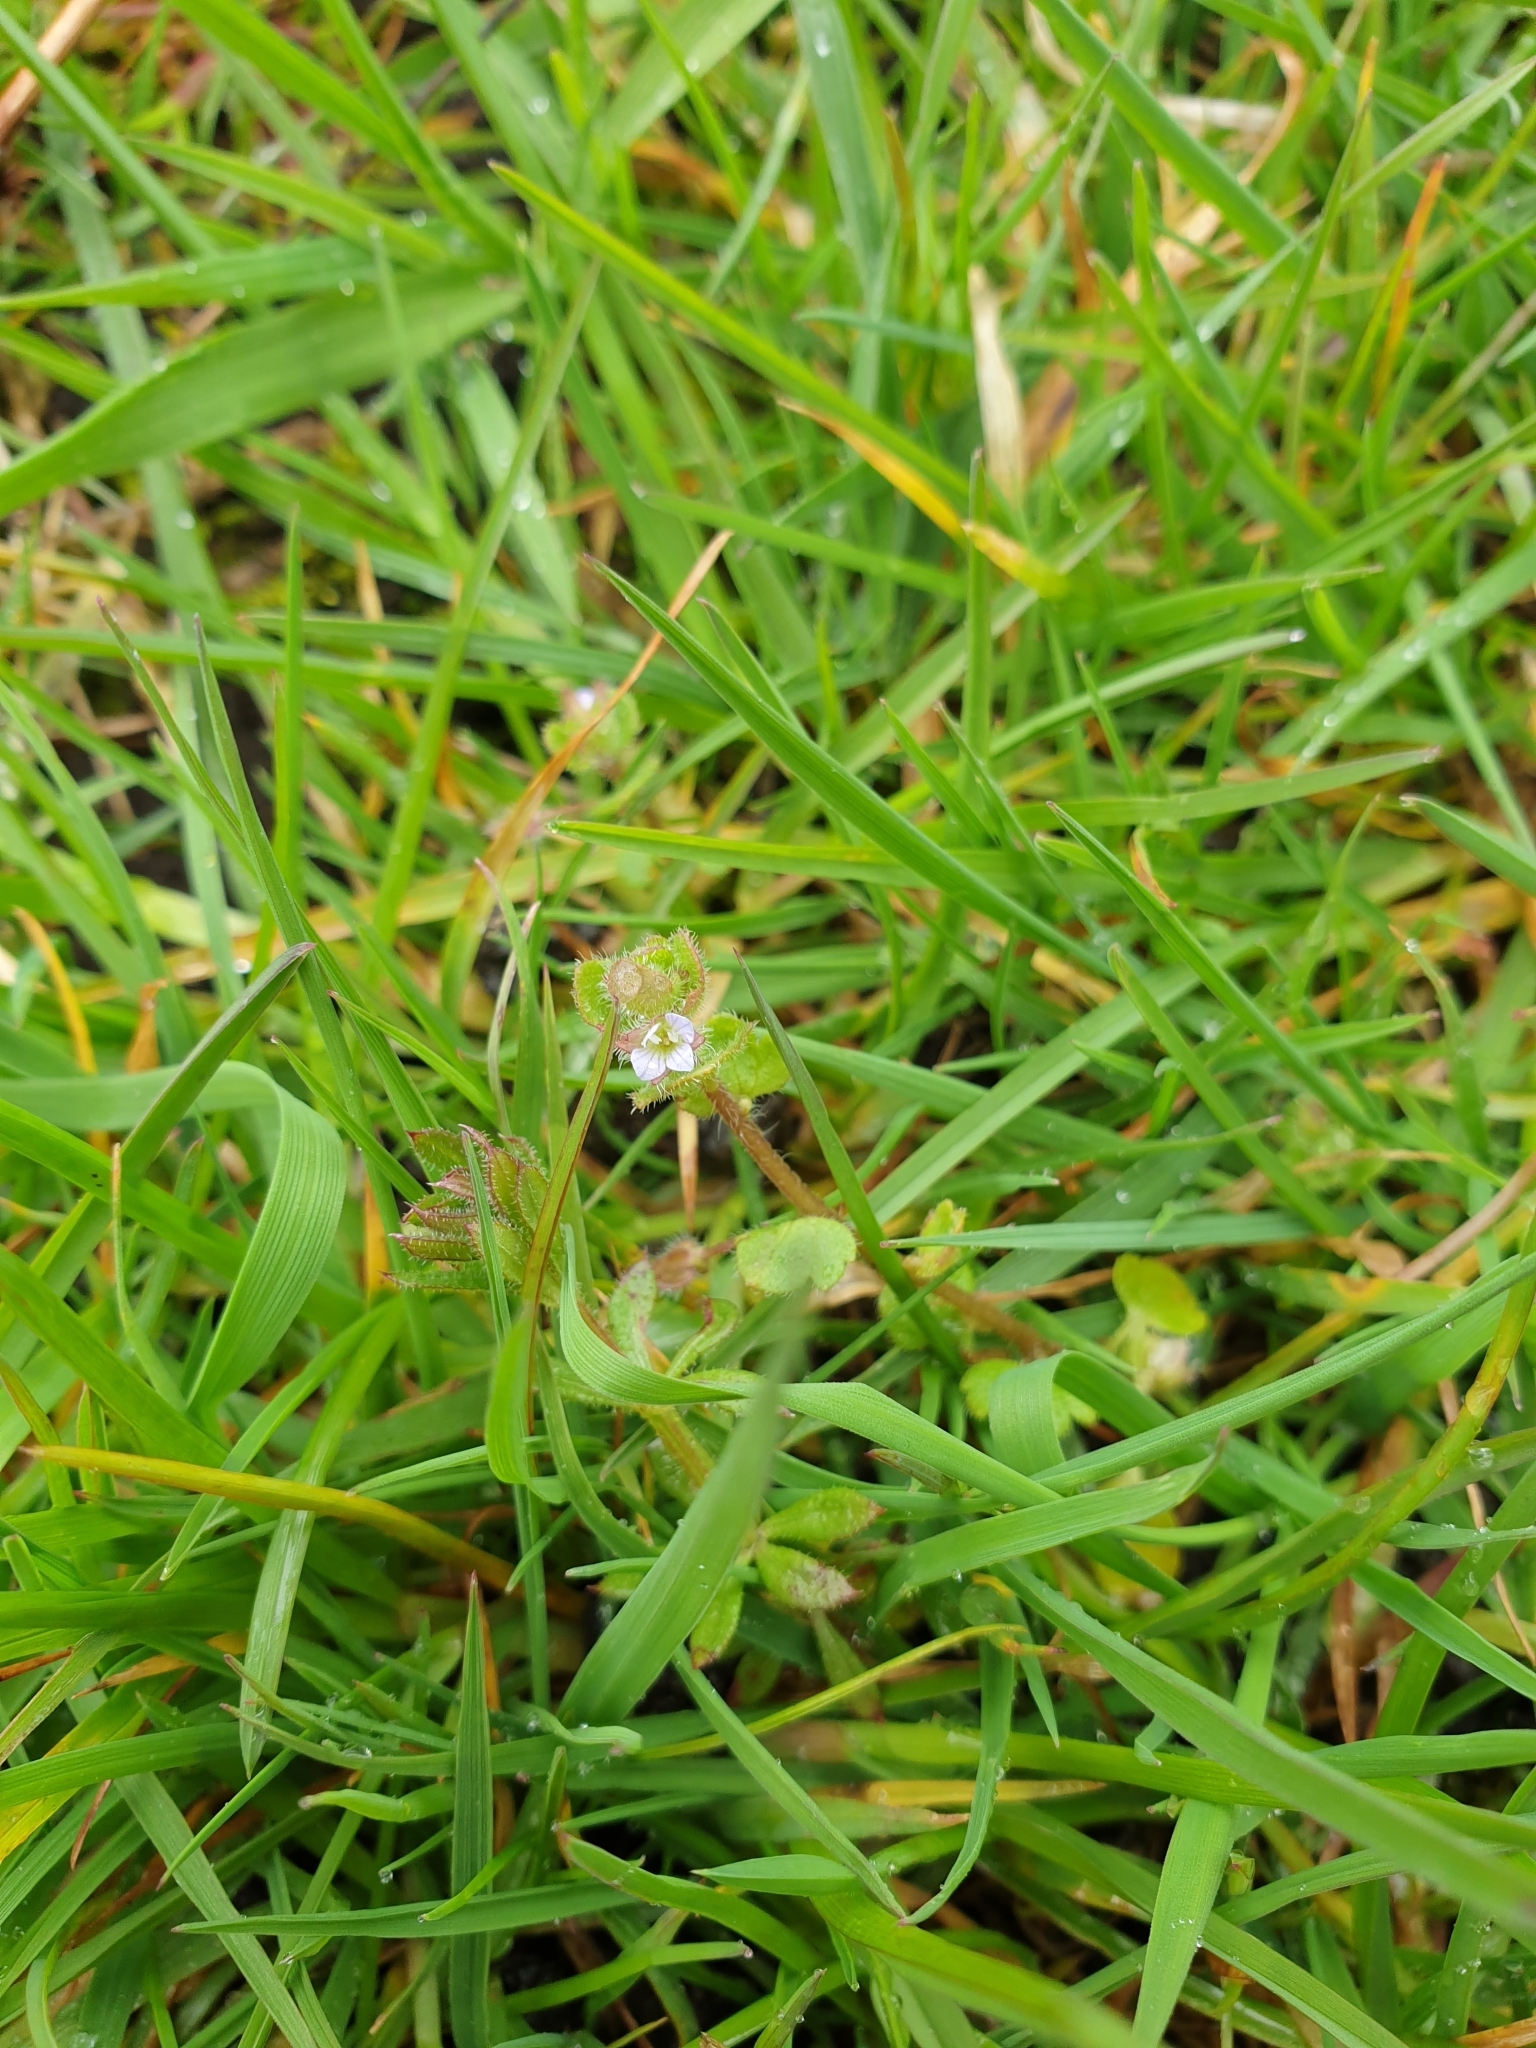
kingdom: Plantae
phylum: Tracheophyta
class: Magnoliopsida
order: Lamiales
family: Plantaginaceae
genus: Veronica
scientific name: Veronica hederifolia
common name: Ivy-leaved speedwell
